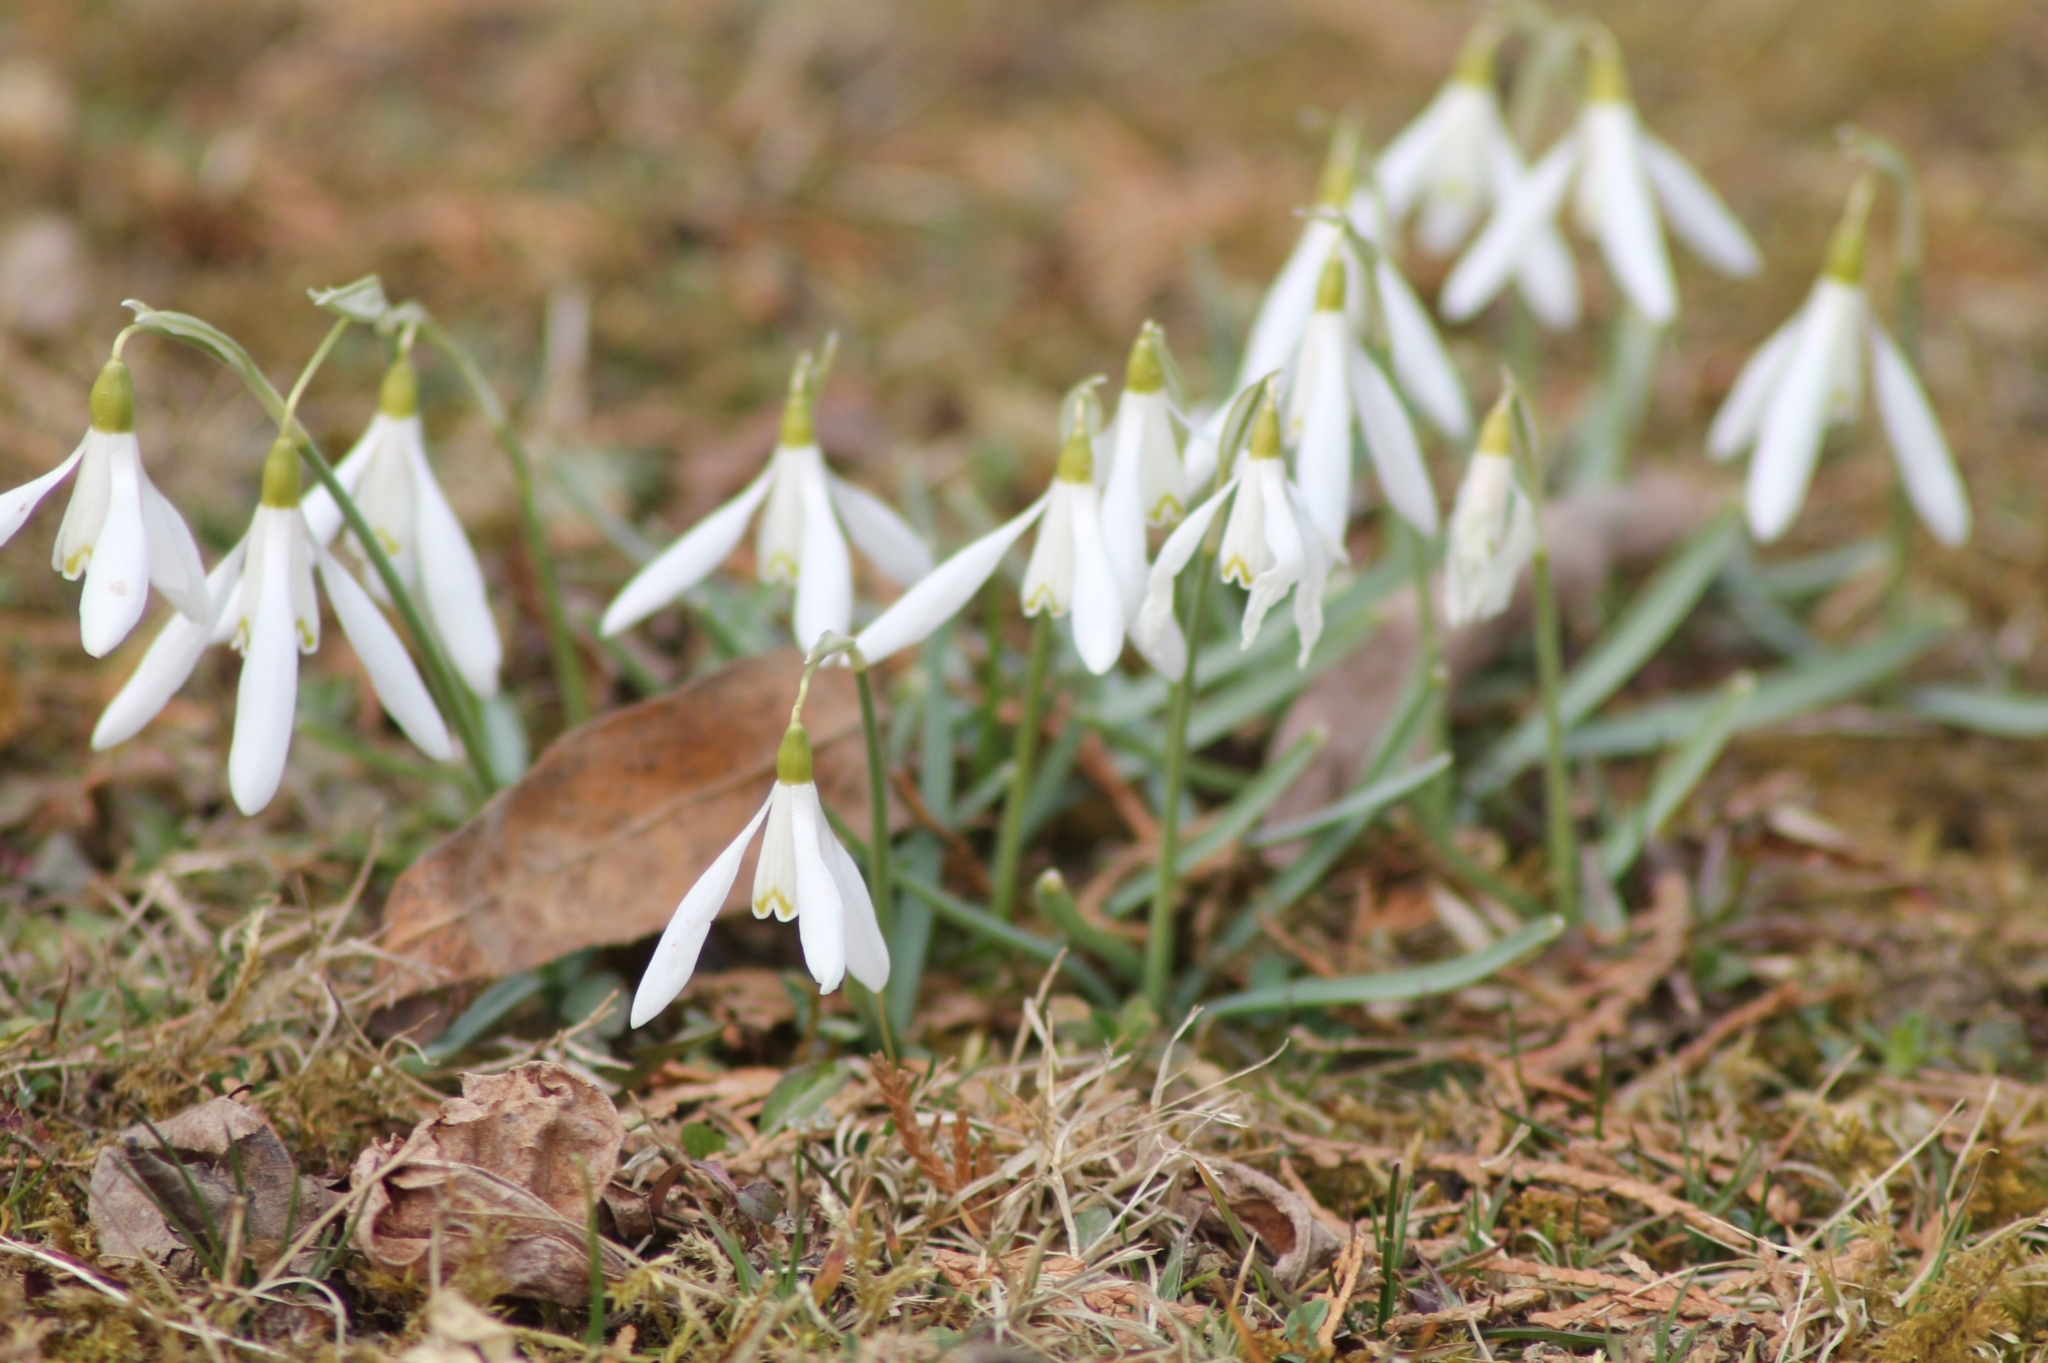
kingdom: Plantae
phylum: Tracheophyta
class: Liliopsida
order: Asparagales
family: Amaryllidaceae
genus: Galanthus
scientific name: Galanthus nivalis
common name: Snowdrop
